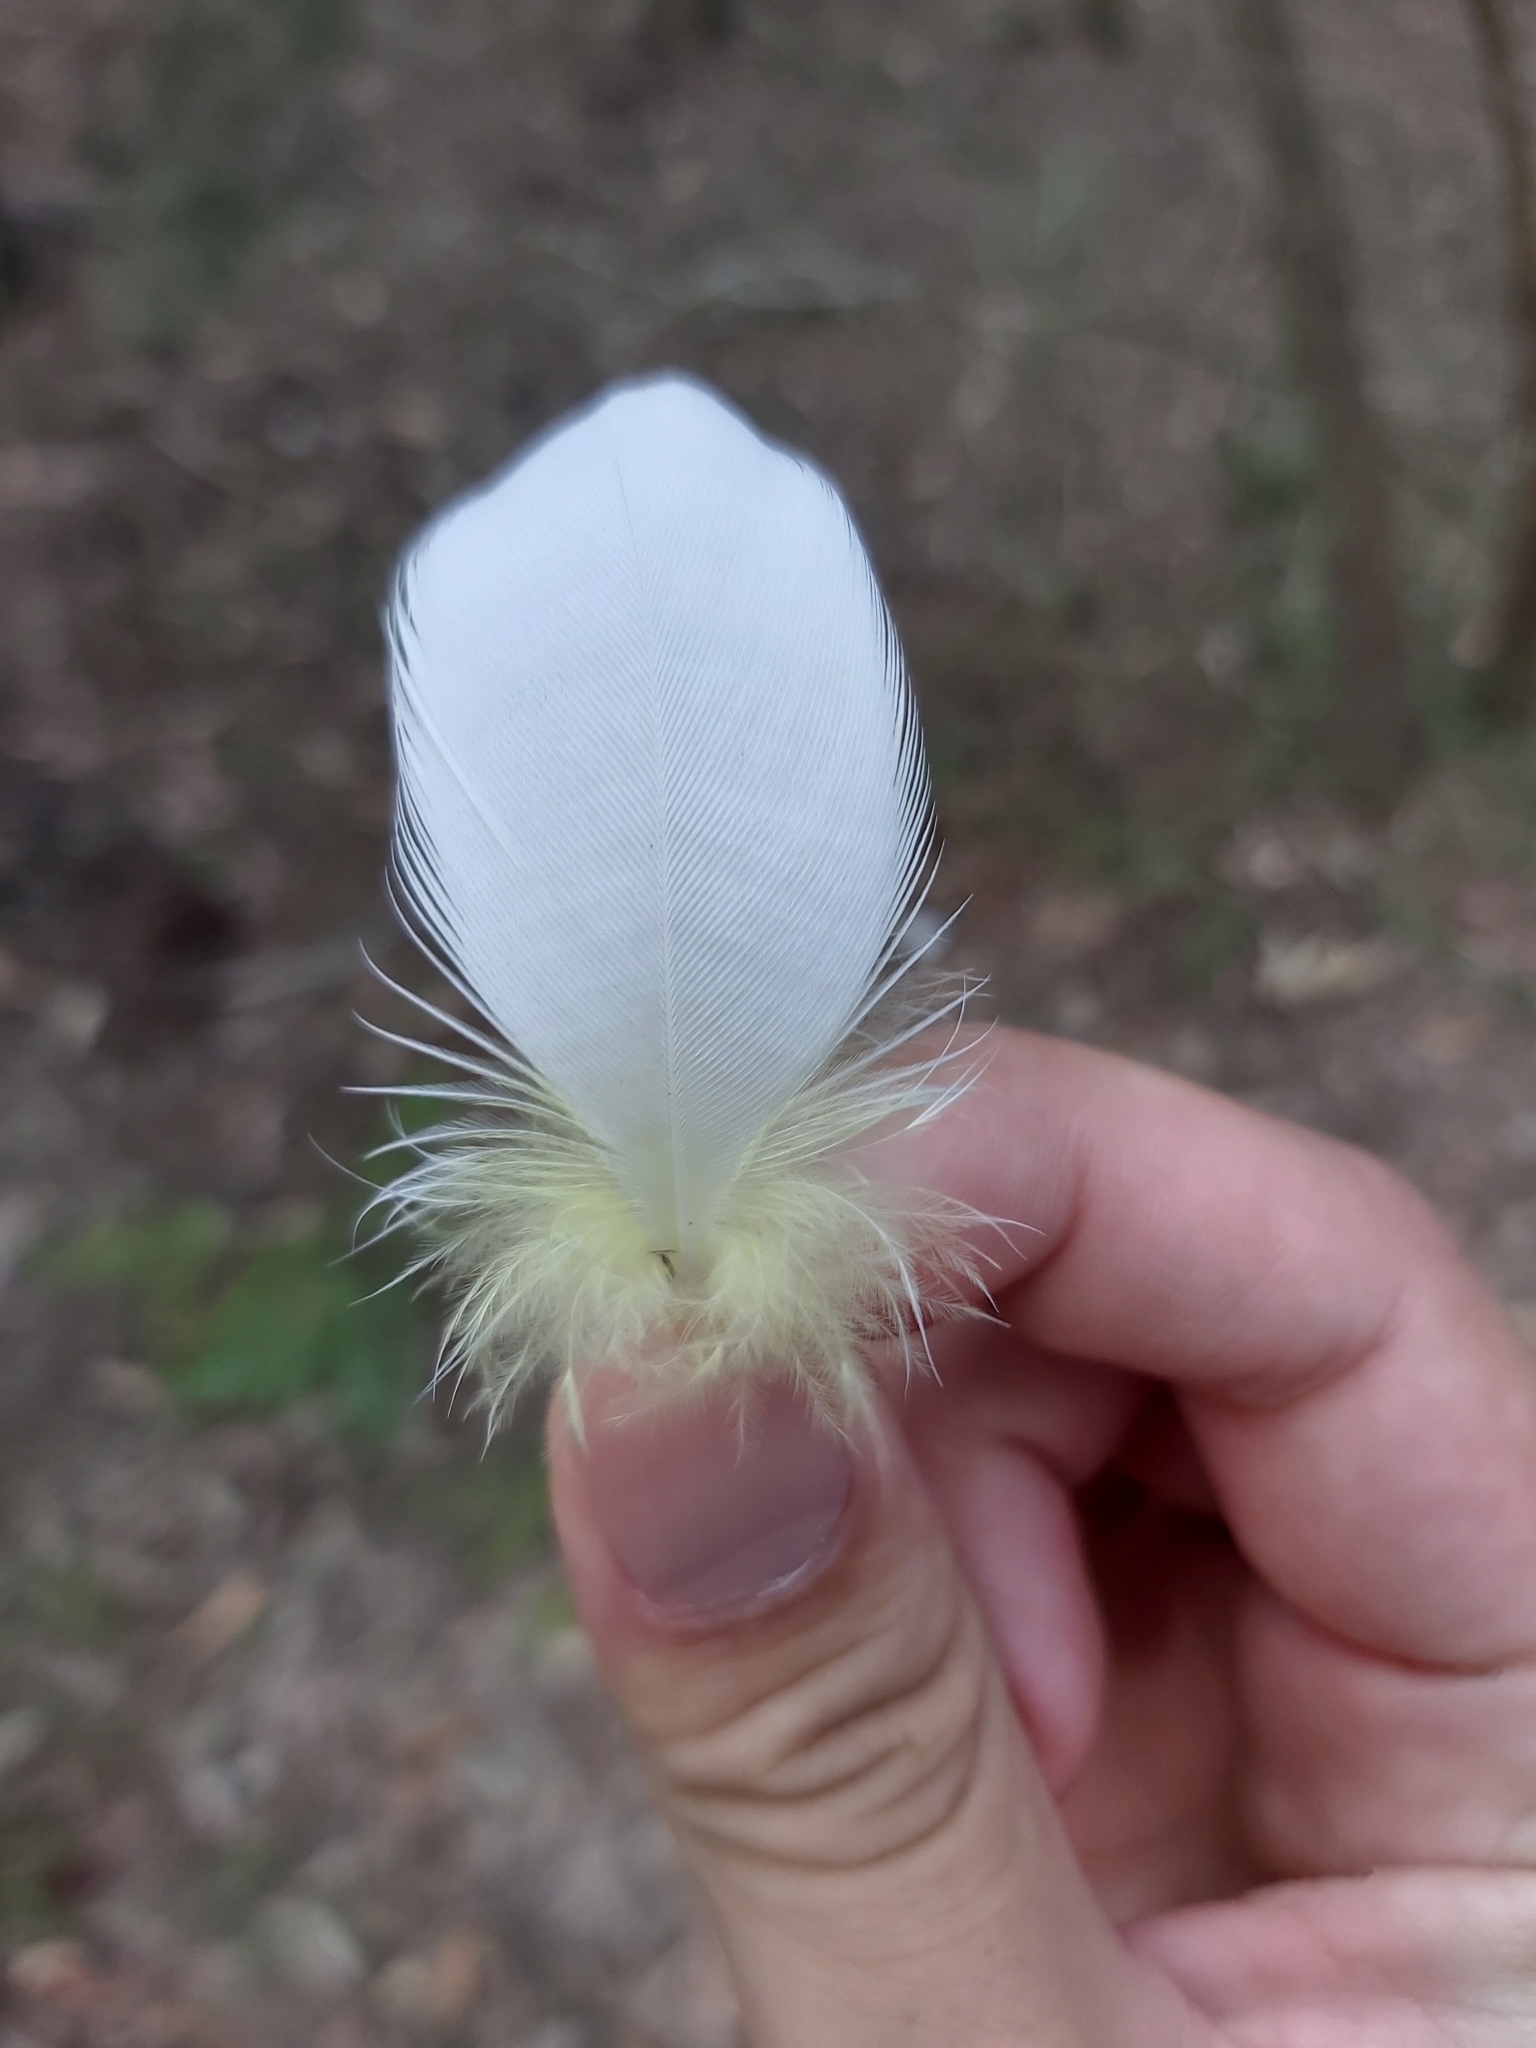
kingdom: Animalia
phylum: Chordata
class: Aves
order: Psittaciformes
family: Psittacidae
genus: Cacatua
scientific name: Cacatua galerita
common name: Sulphur-crested cockatoo
